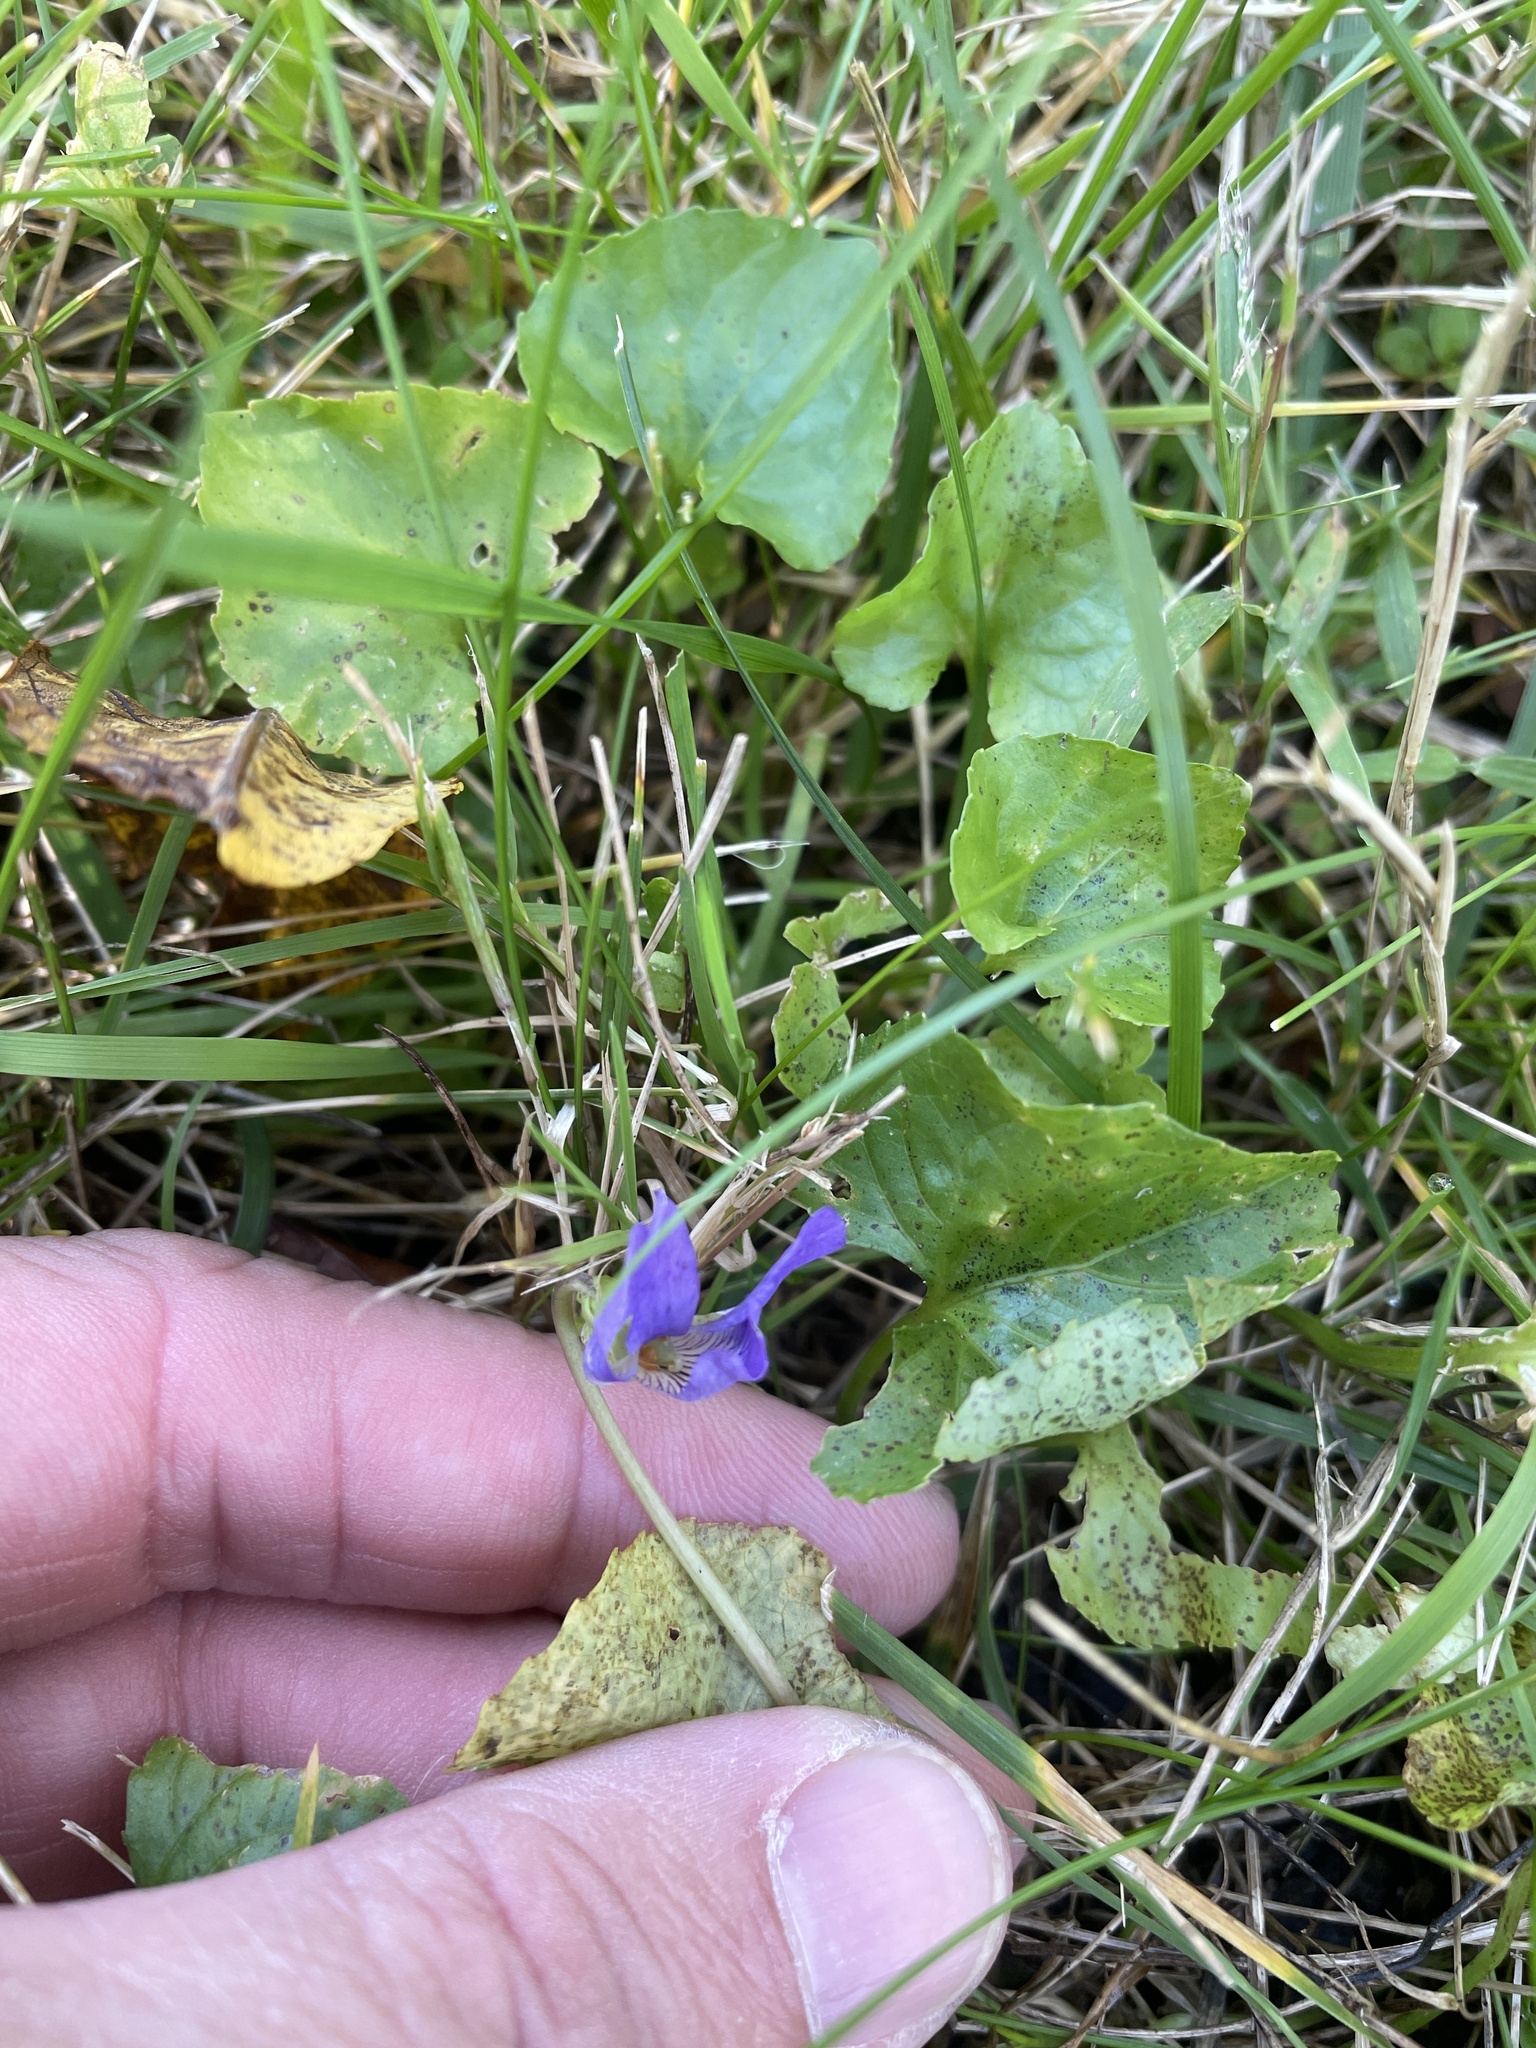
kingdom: Plantae
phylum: Tracheophyta
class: Magnoliopsida
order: Malpighiales
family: Violaceae
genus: Viola
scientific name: Viola sororia
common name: Dooryard violet
